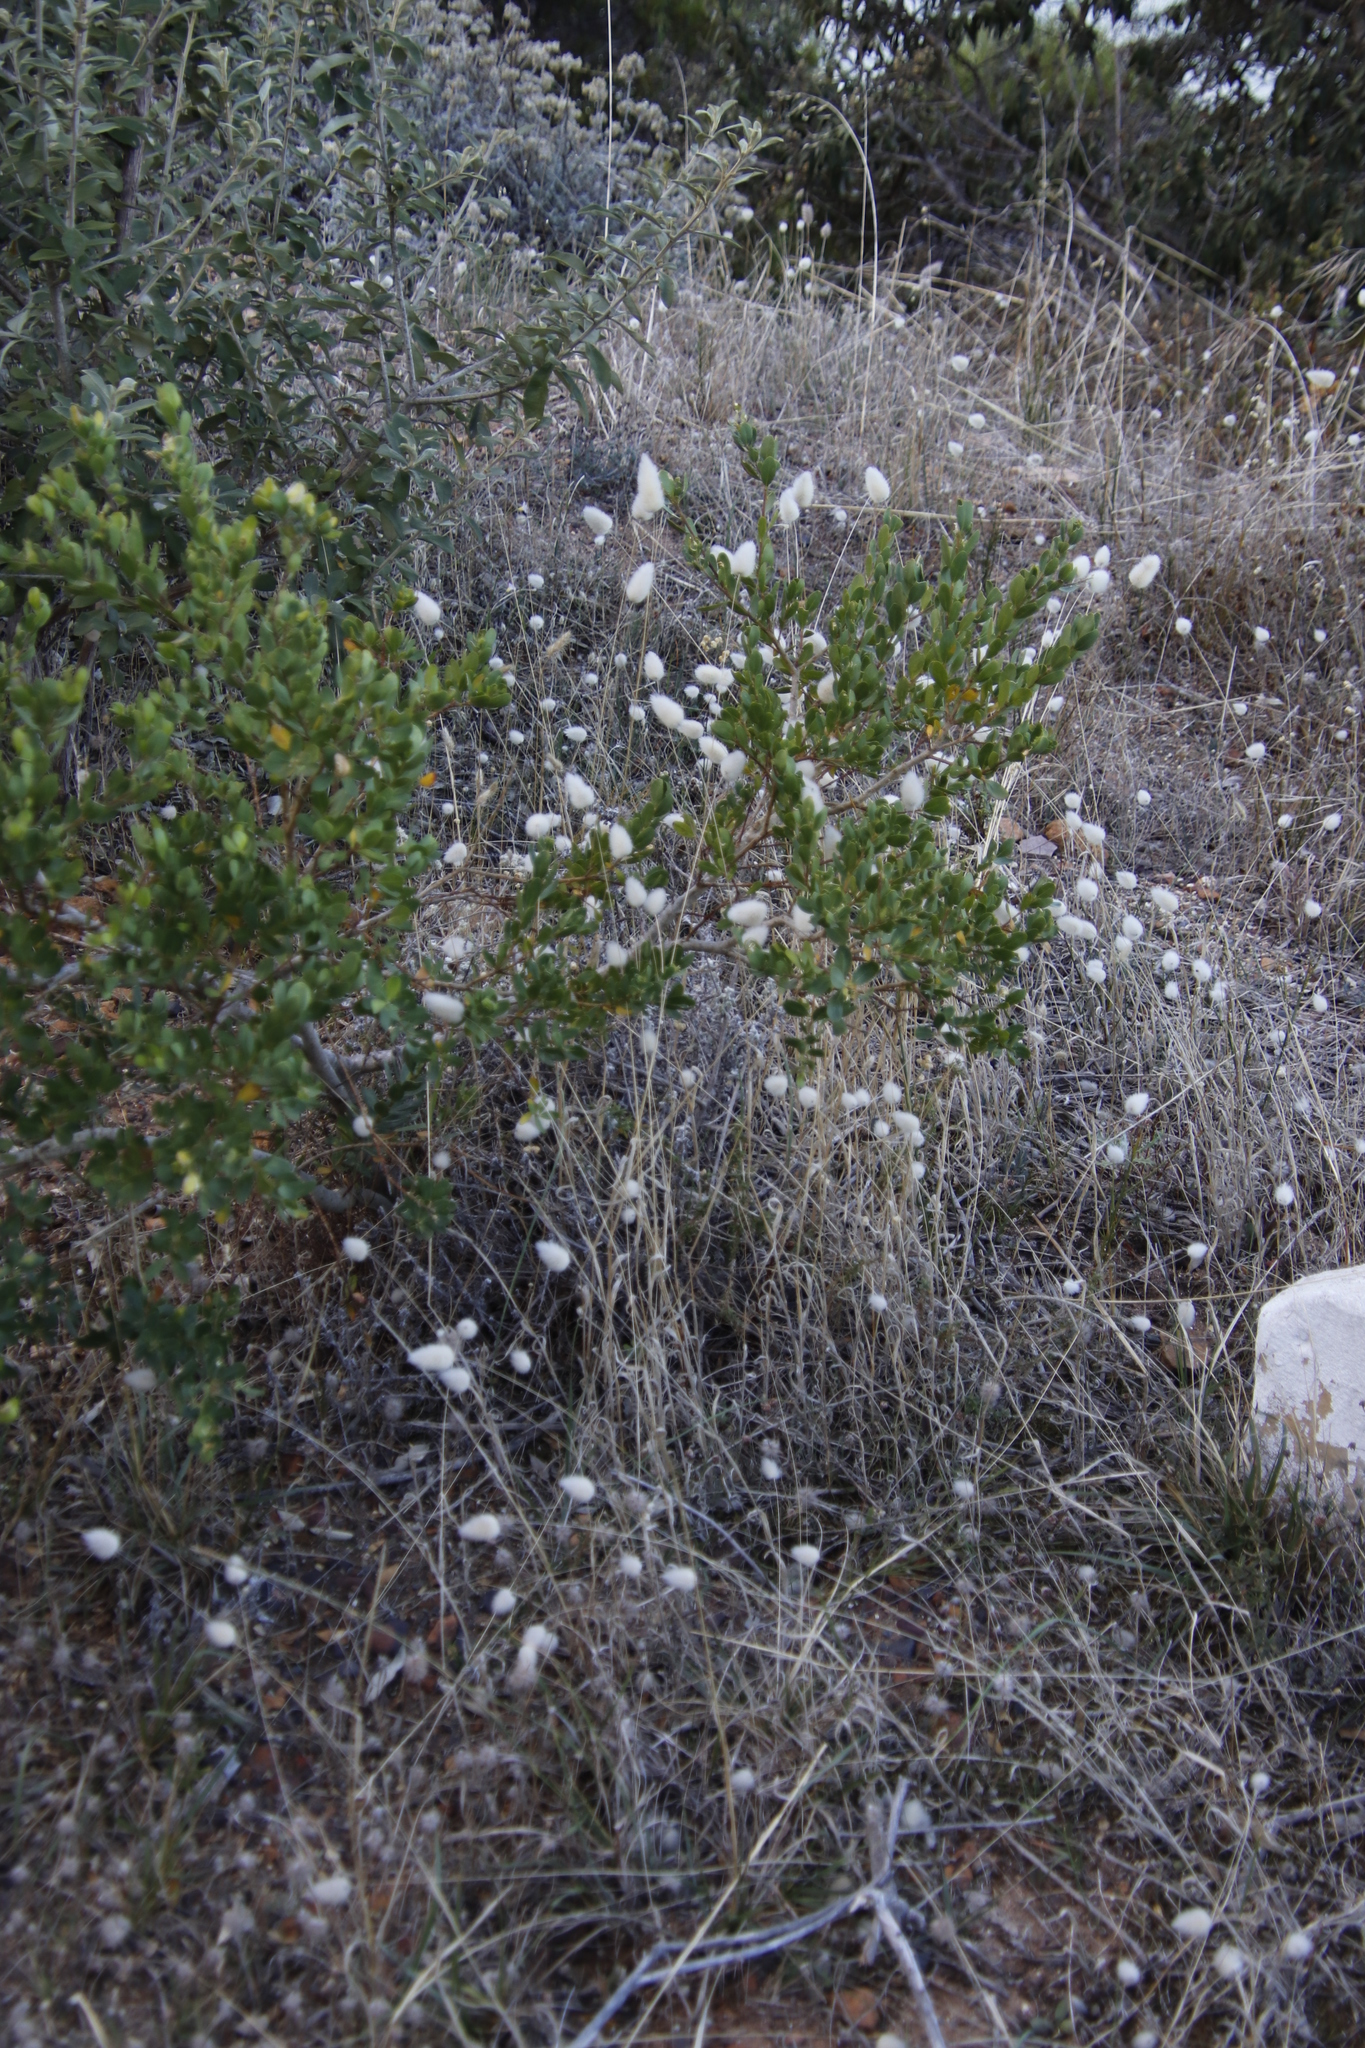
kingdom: Plantae
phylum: Tracheophyta
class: Liliopsida
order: Poales
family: Poaceae
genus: Lagurus
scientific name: Lagurus ovatus
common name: Hare's-tail
